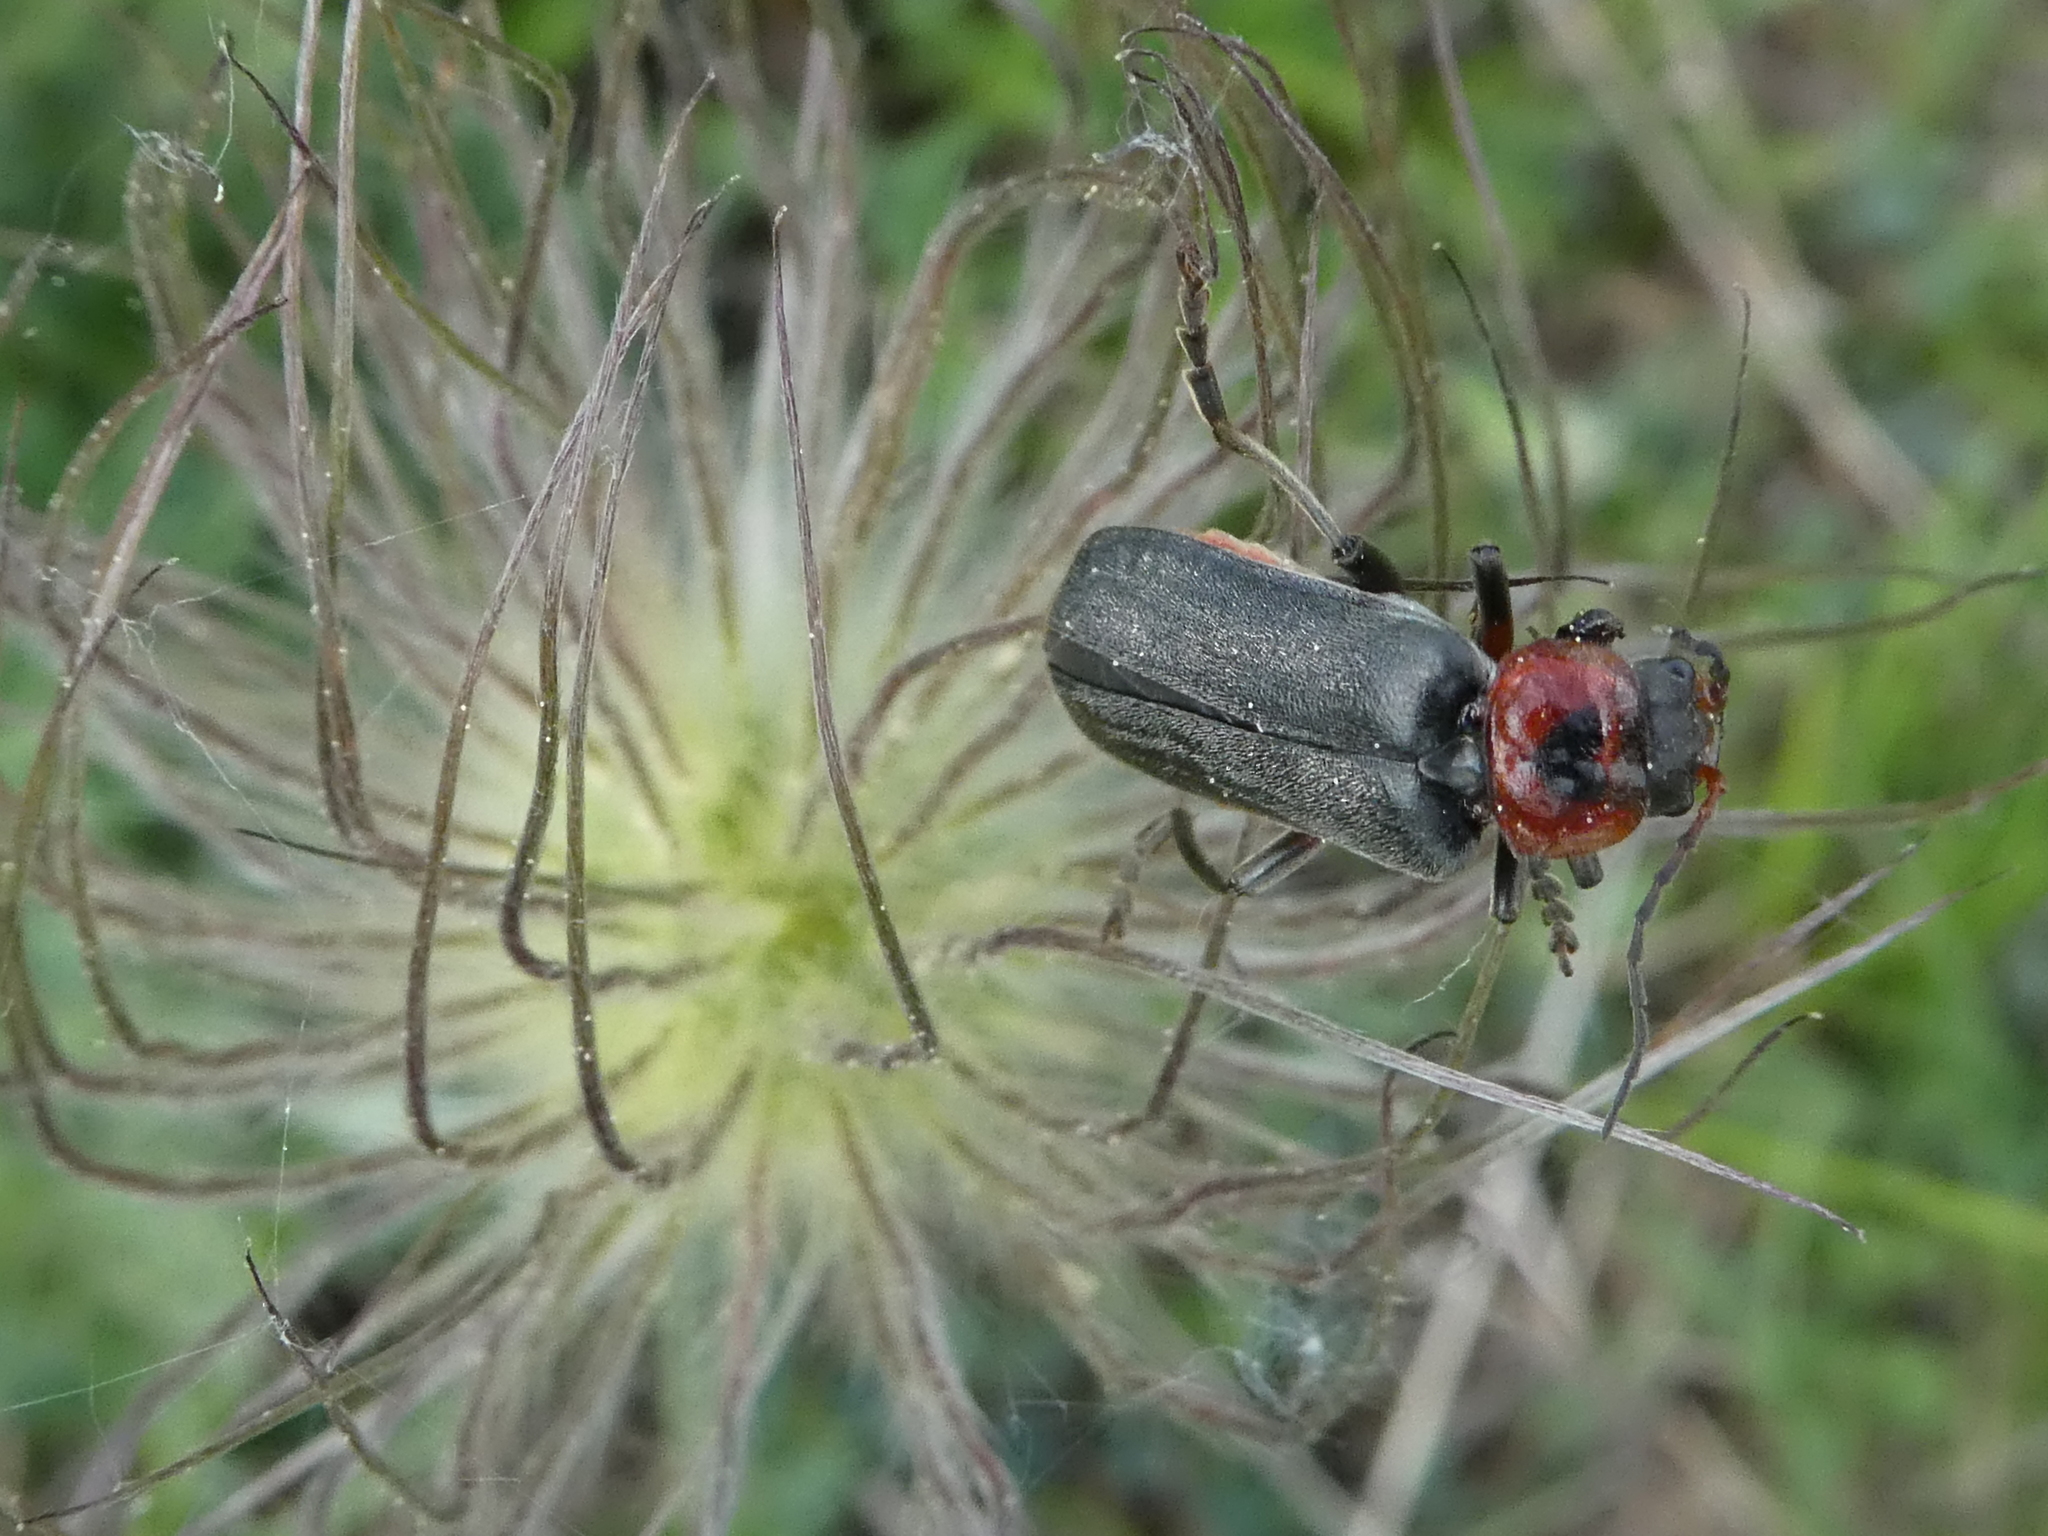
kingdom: Animalia
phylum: Arthropoda
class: Insecta
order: Coleoptera
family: Cantharidae
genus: Cantharis
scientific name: Cantharis fusca
